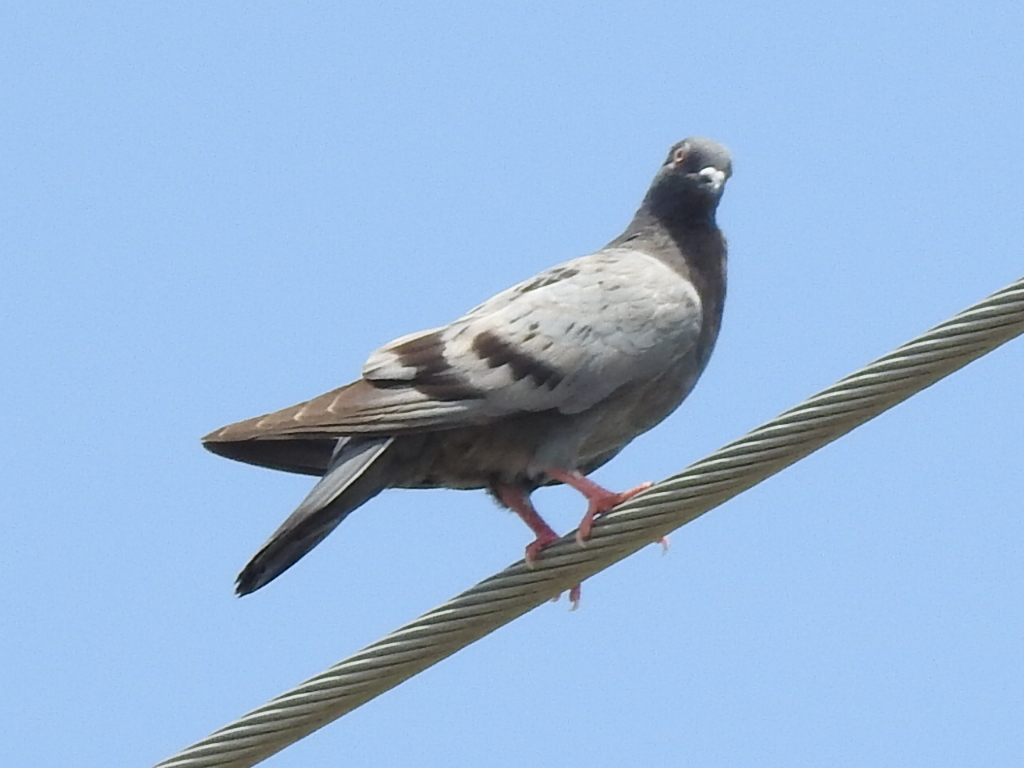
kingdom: Animalia
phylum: Chordata
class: Aves
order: Columbiformes
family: Columbidae
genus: Columba
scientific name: Columba livia
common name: Rock pigeon
